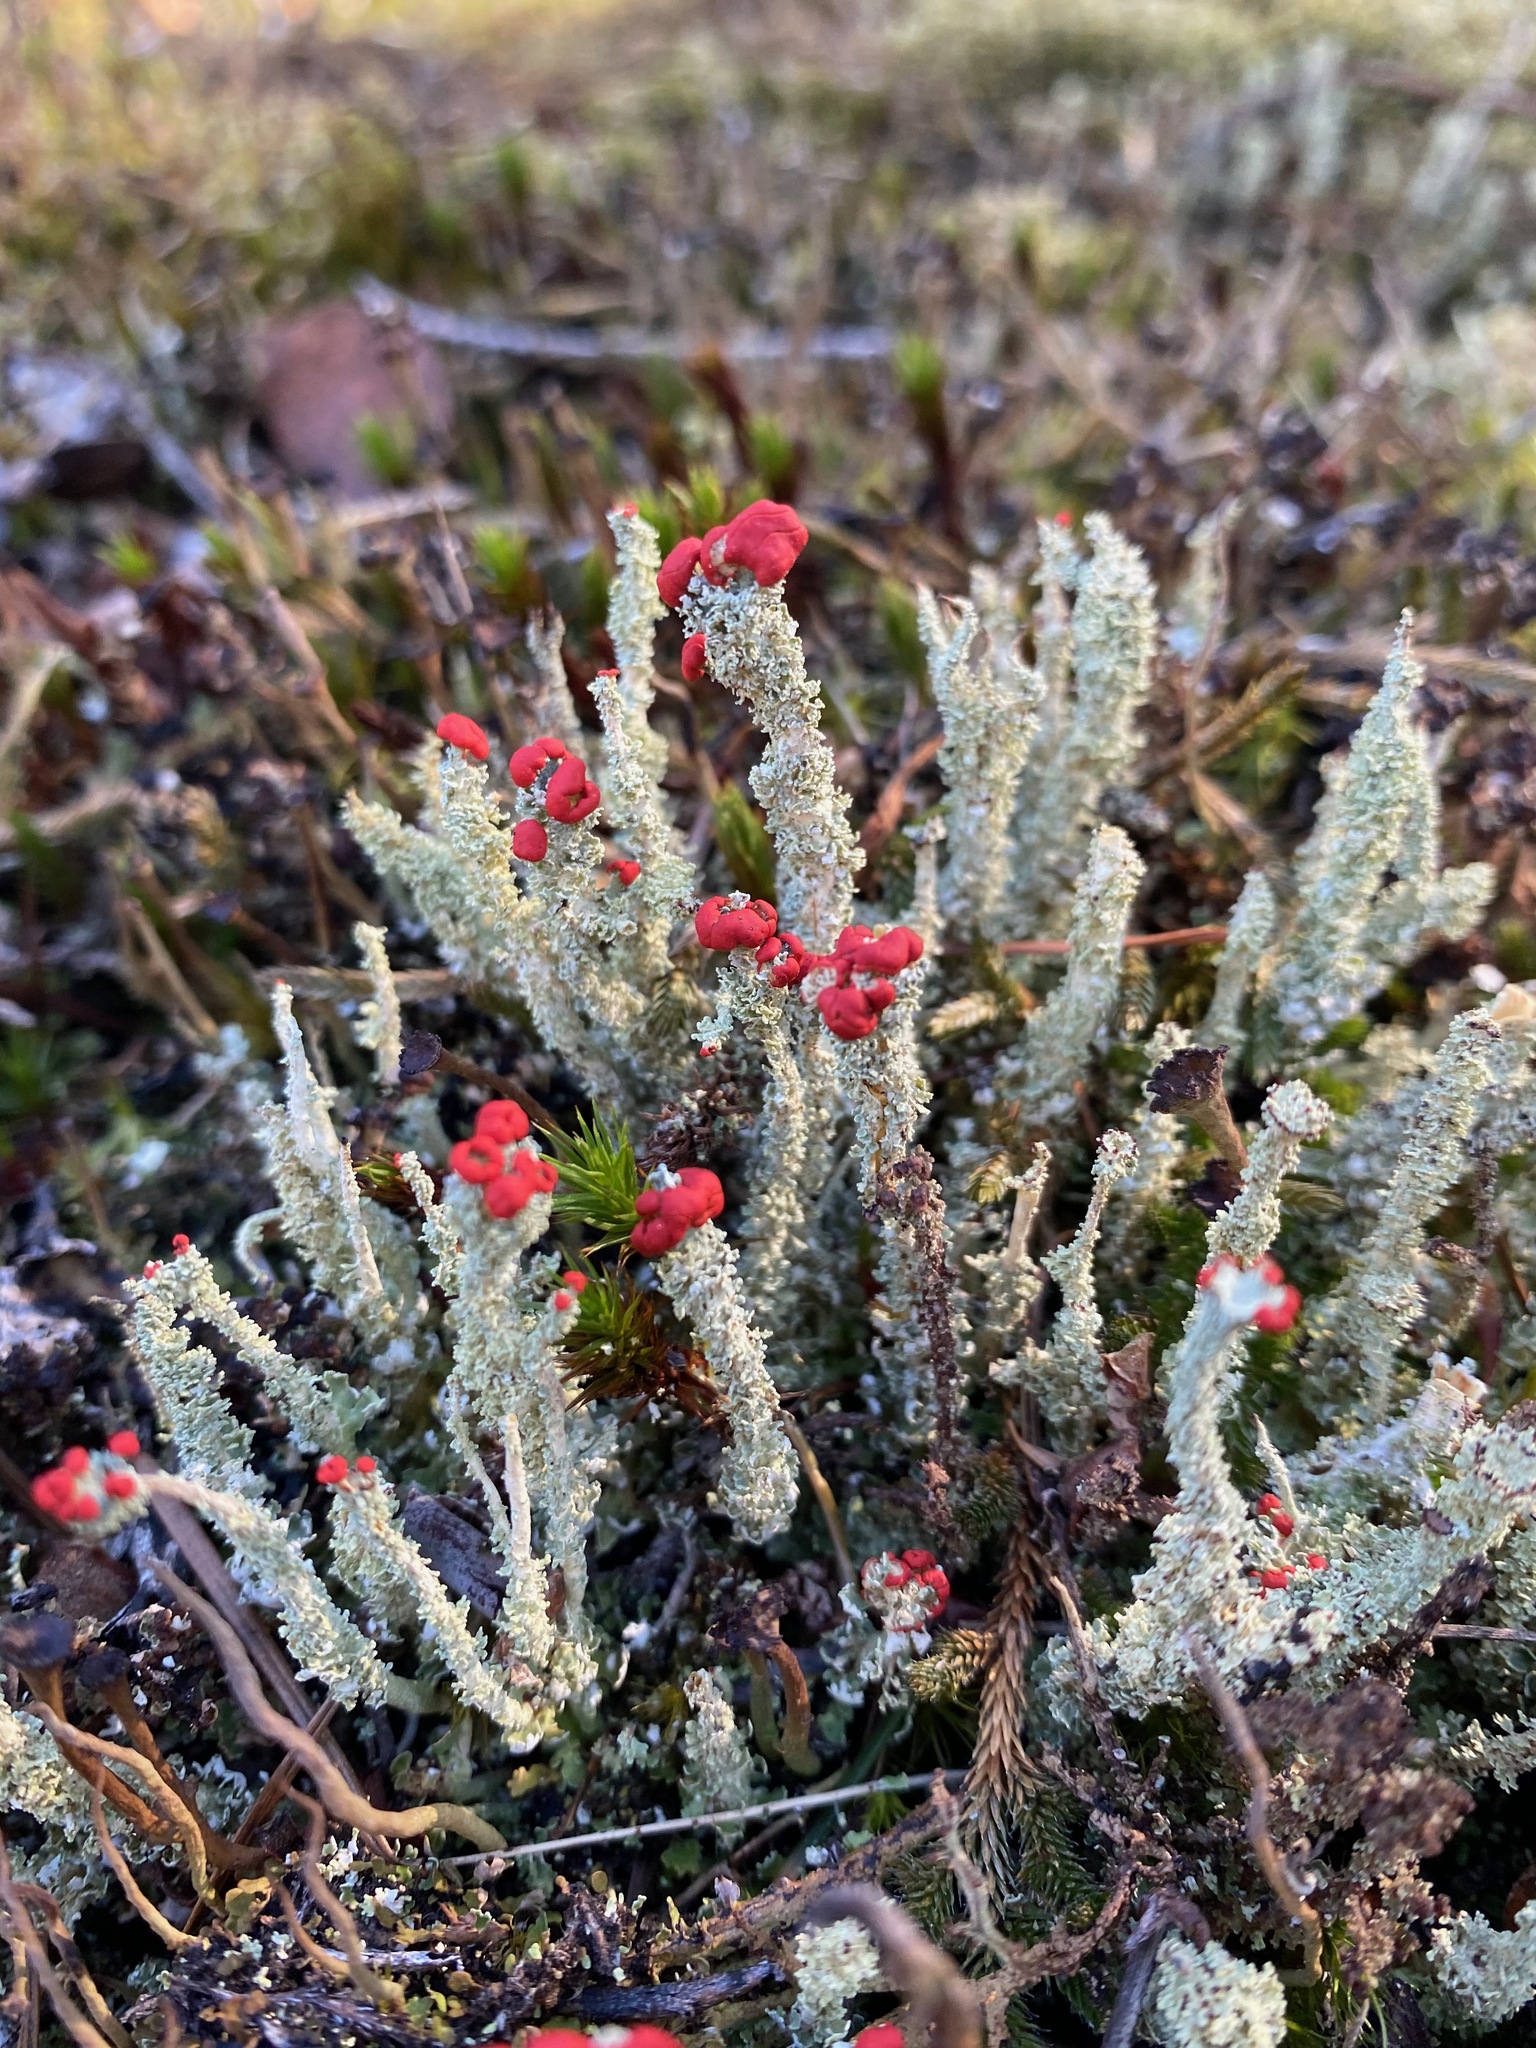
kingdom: Fungi
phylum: Ascomycota
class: Lecanoromycetes
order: Lecanorales
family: Cladoniaceae
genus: Cladonia
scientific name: Cladonia bellidiflora
